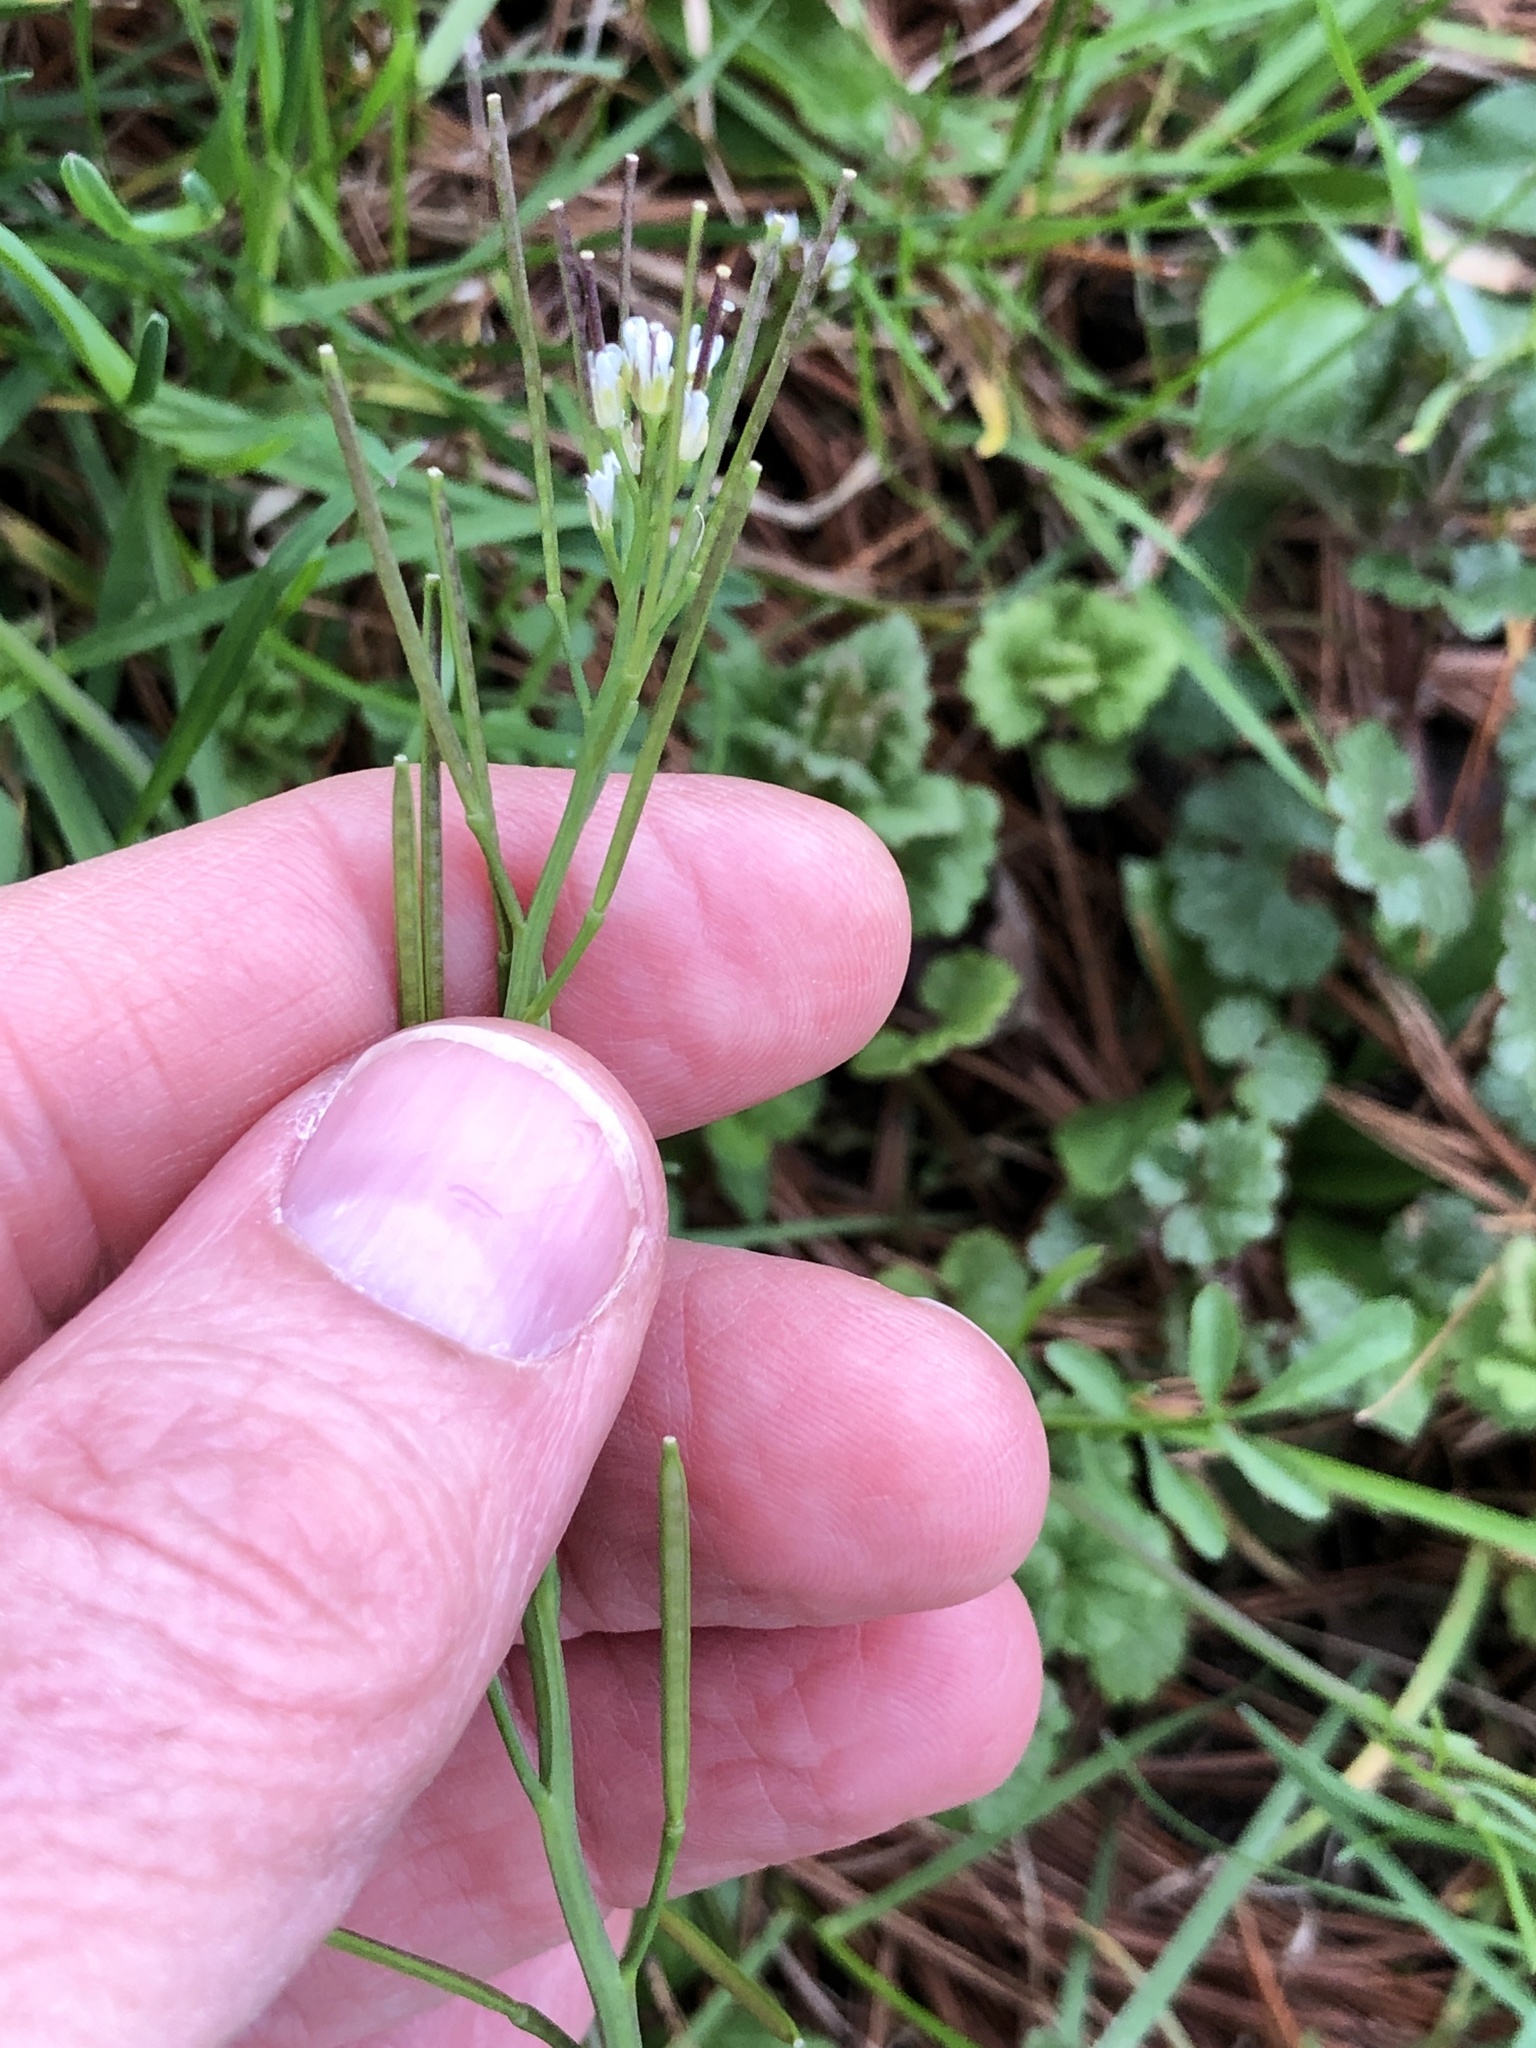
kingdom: Plantae
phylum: Tracheophyta
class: Magnoliopsida
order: Brassicales
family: Brassicaceae
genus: Cardamine
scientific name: Cardamine hirsuta
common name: Hairy bittercress
